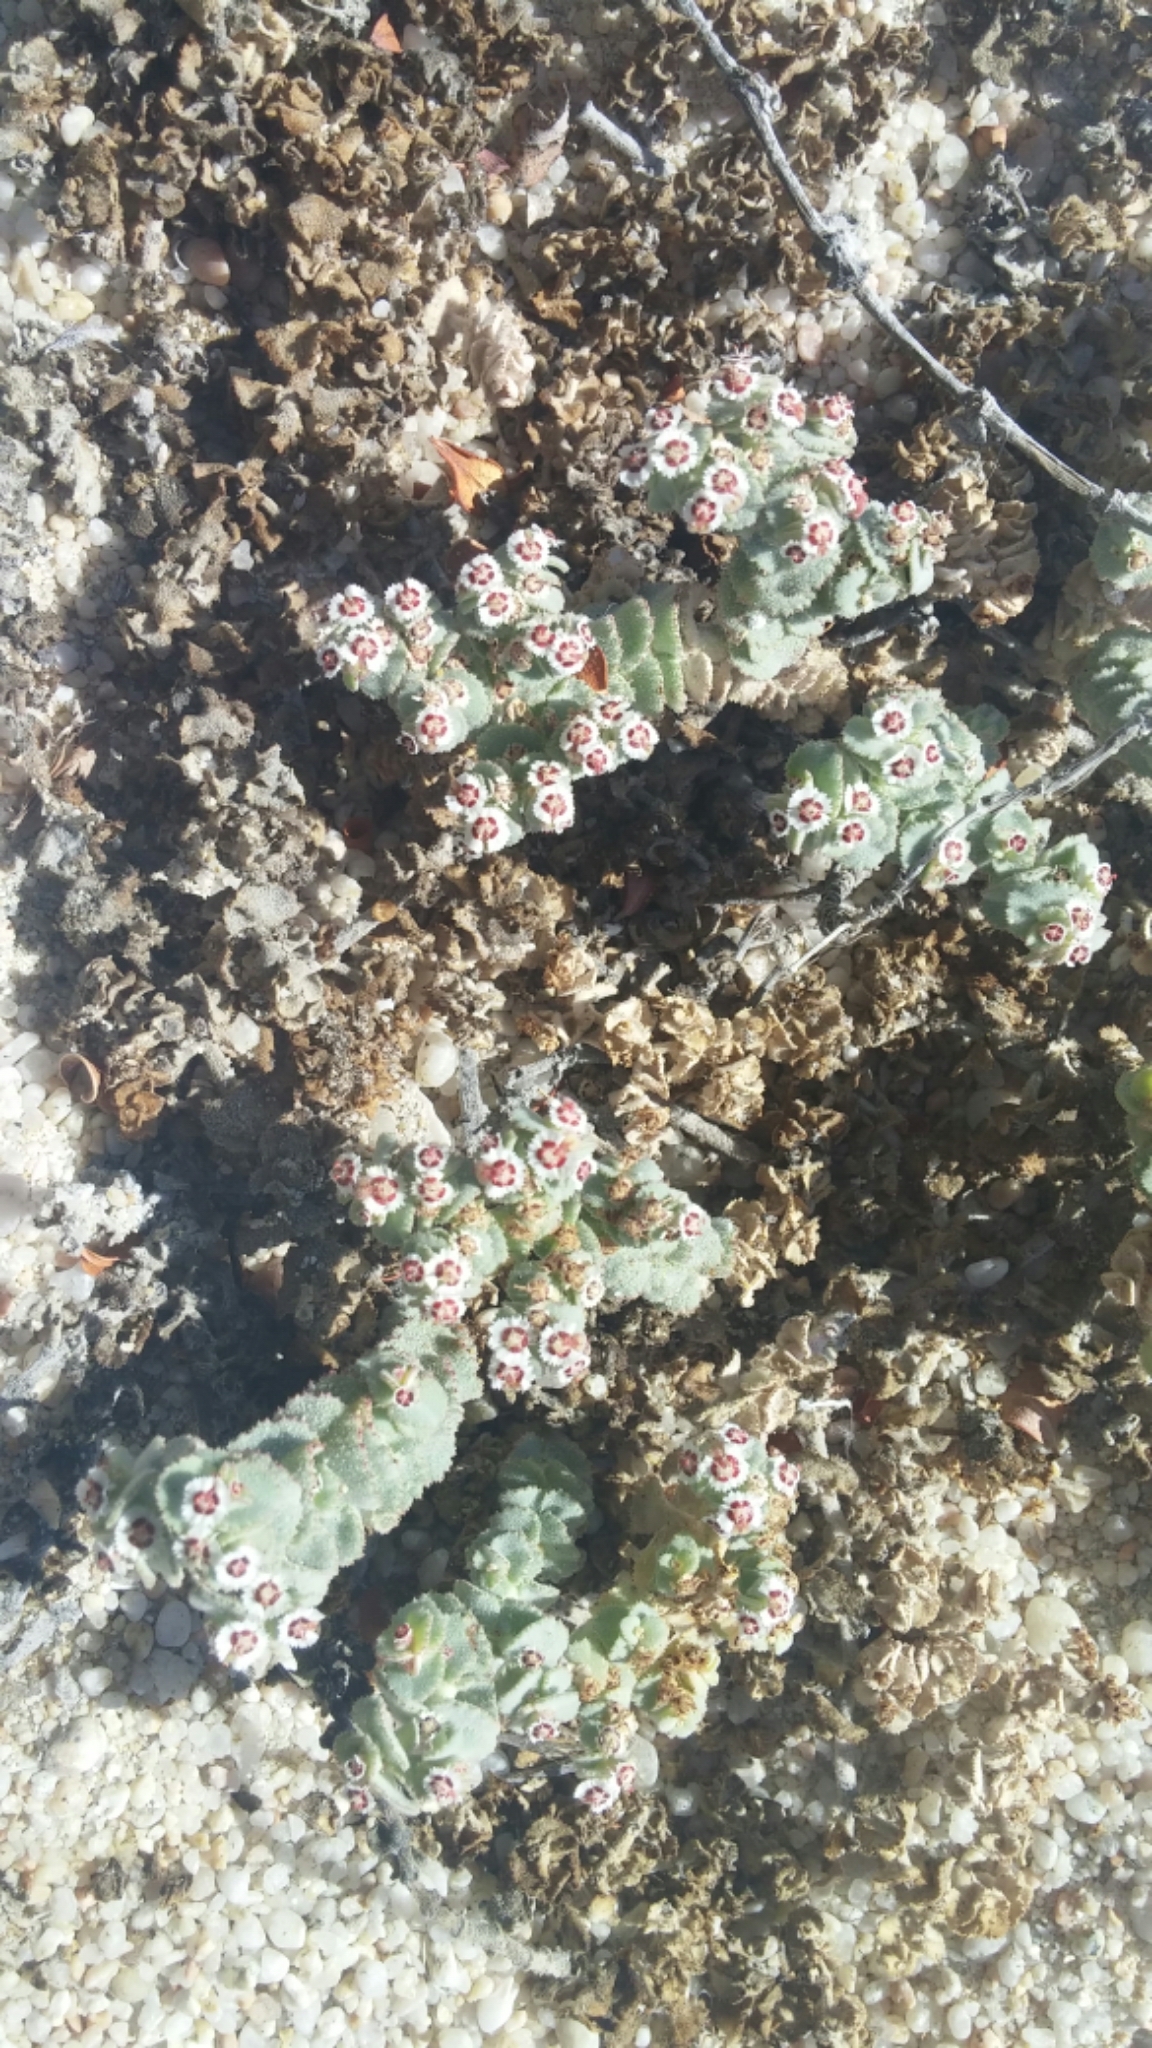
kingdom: Plantae
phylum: Tracheophyta
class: Magnoliopsida
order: Malpighiales
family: Euphorbiaceae
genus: Euphorbia
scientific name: Euphorbia leucophylla
